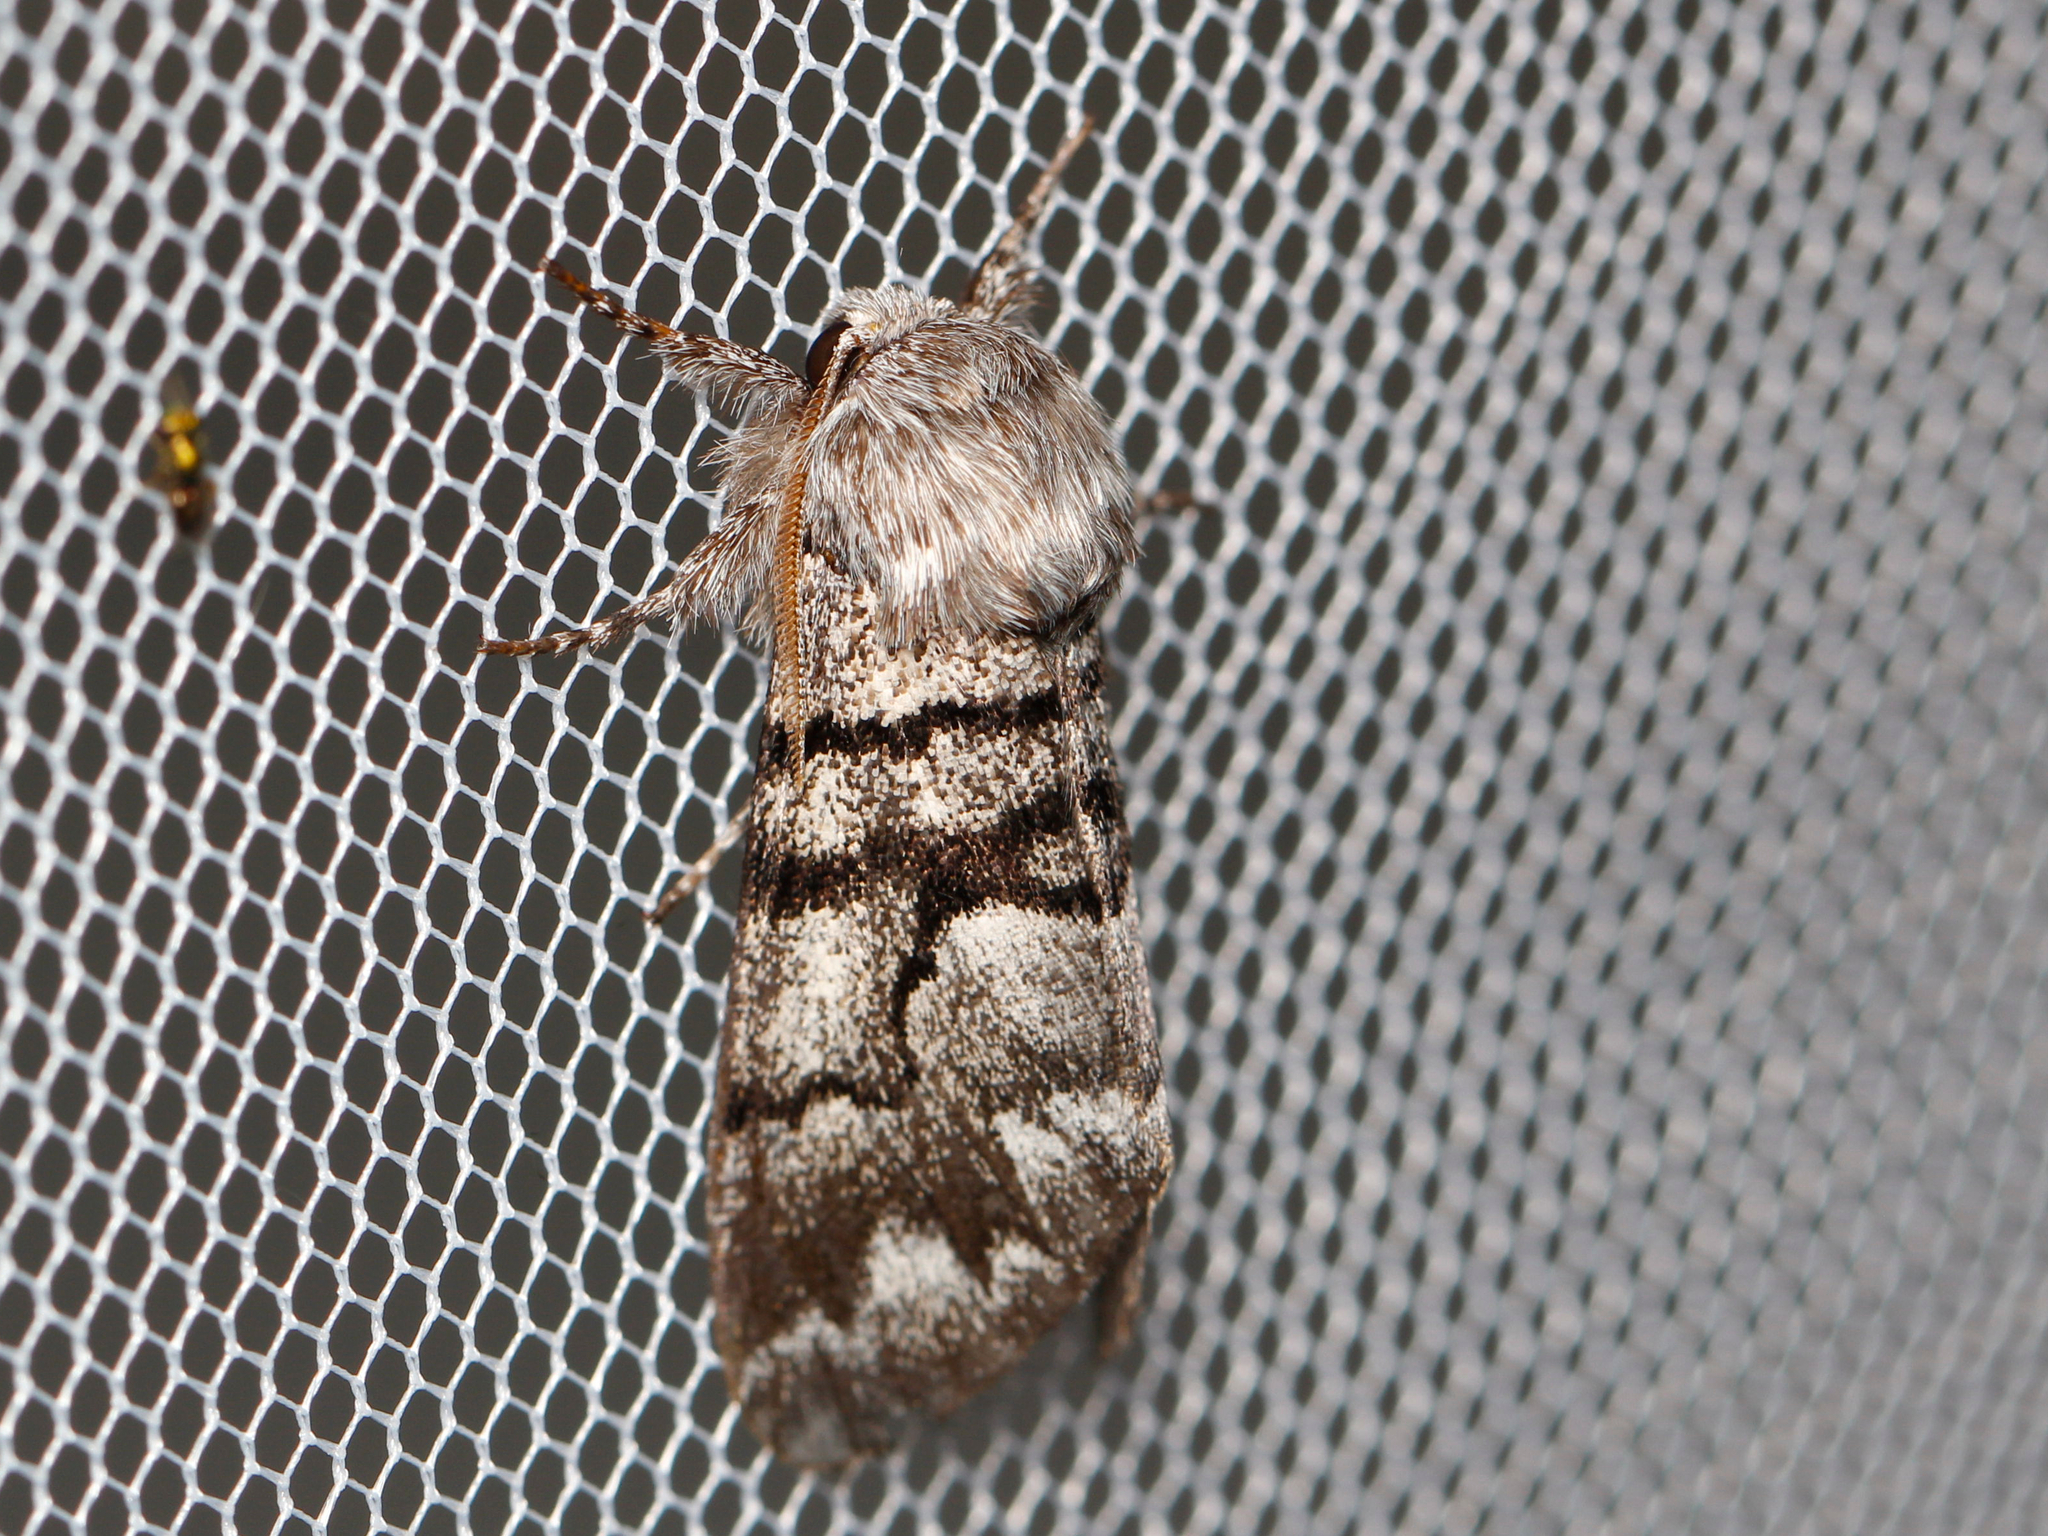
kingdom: Animalia
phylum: Arthropoda
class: Insecta
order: Lepidoptera
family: Noctuidae
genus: Panthea
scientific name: Panthea furcilla
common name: Eastern panthea moth
